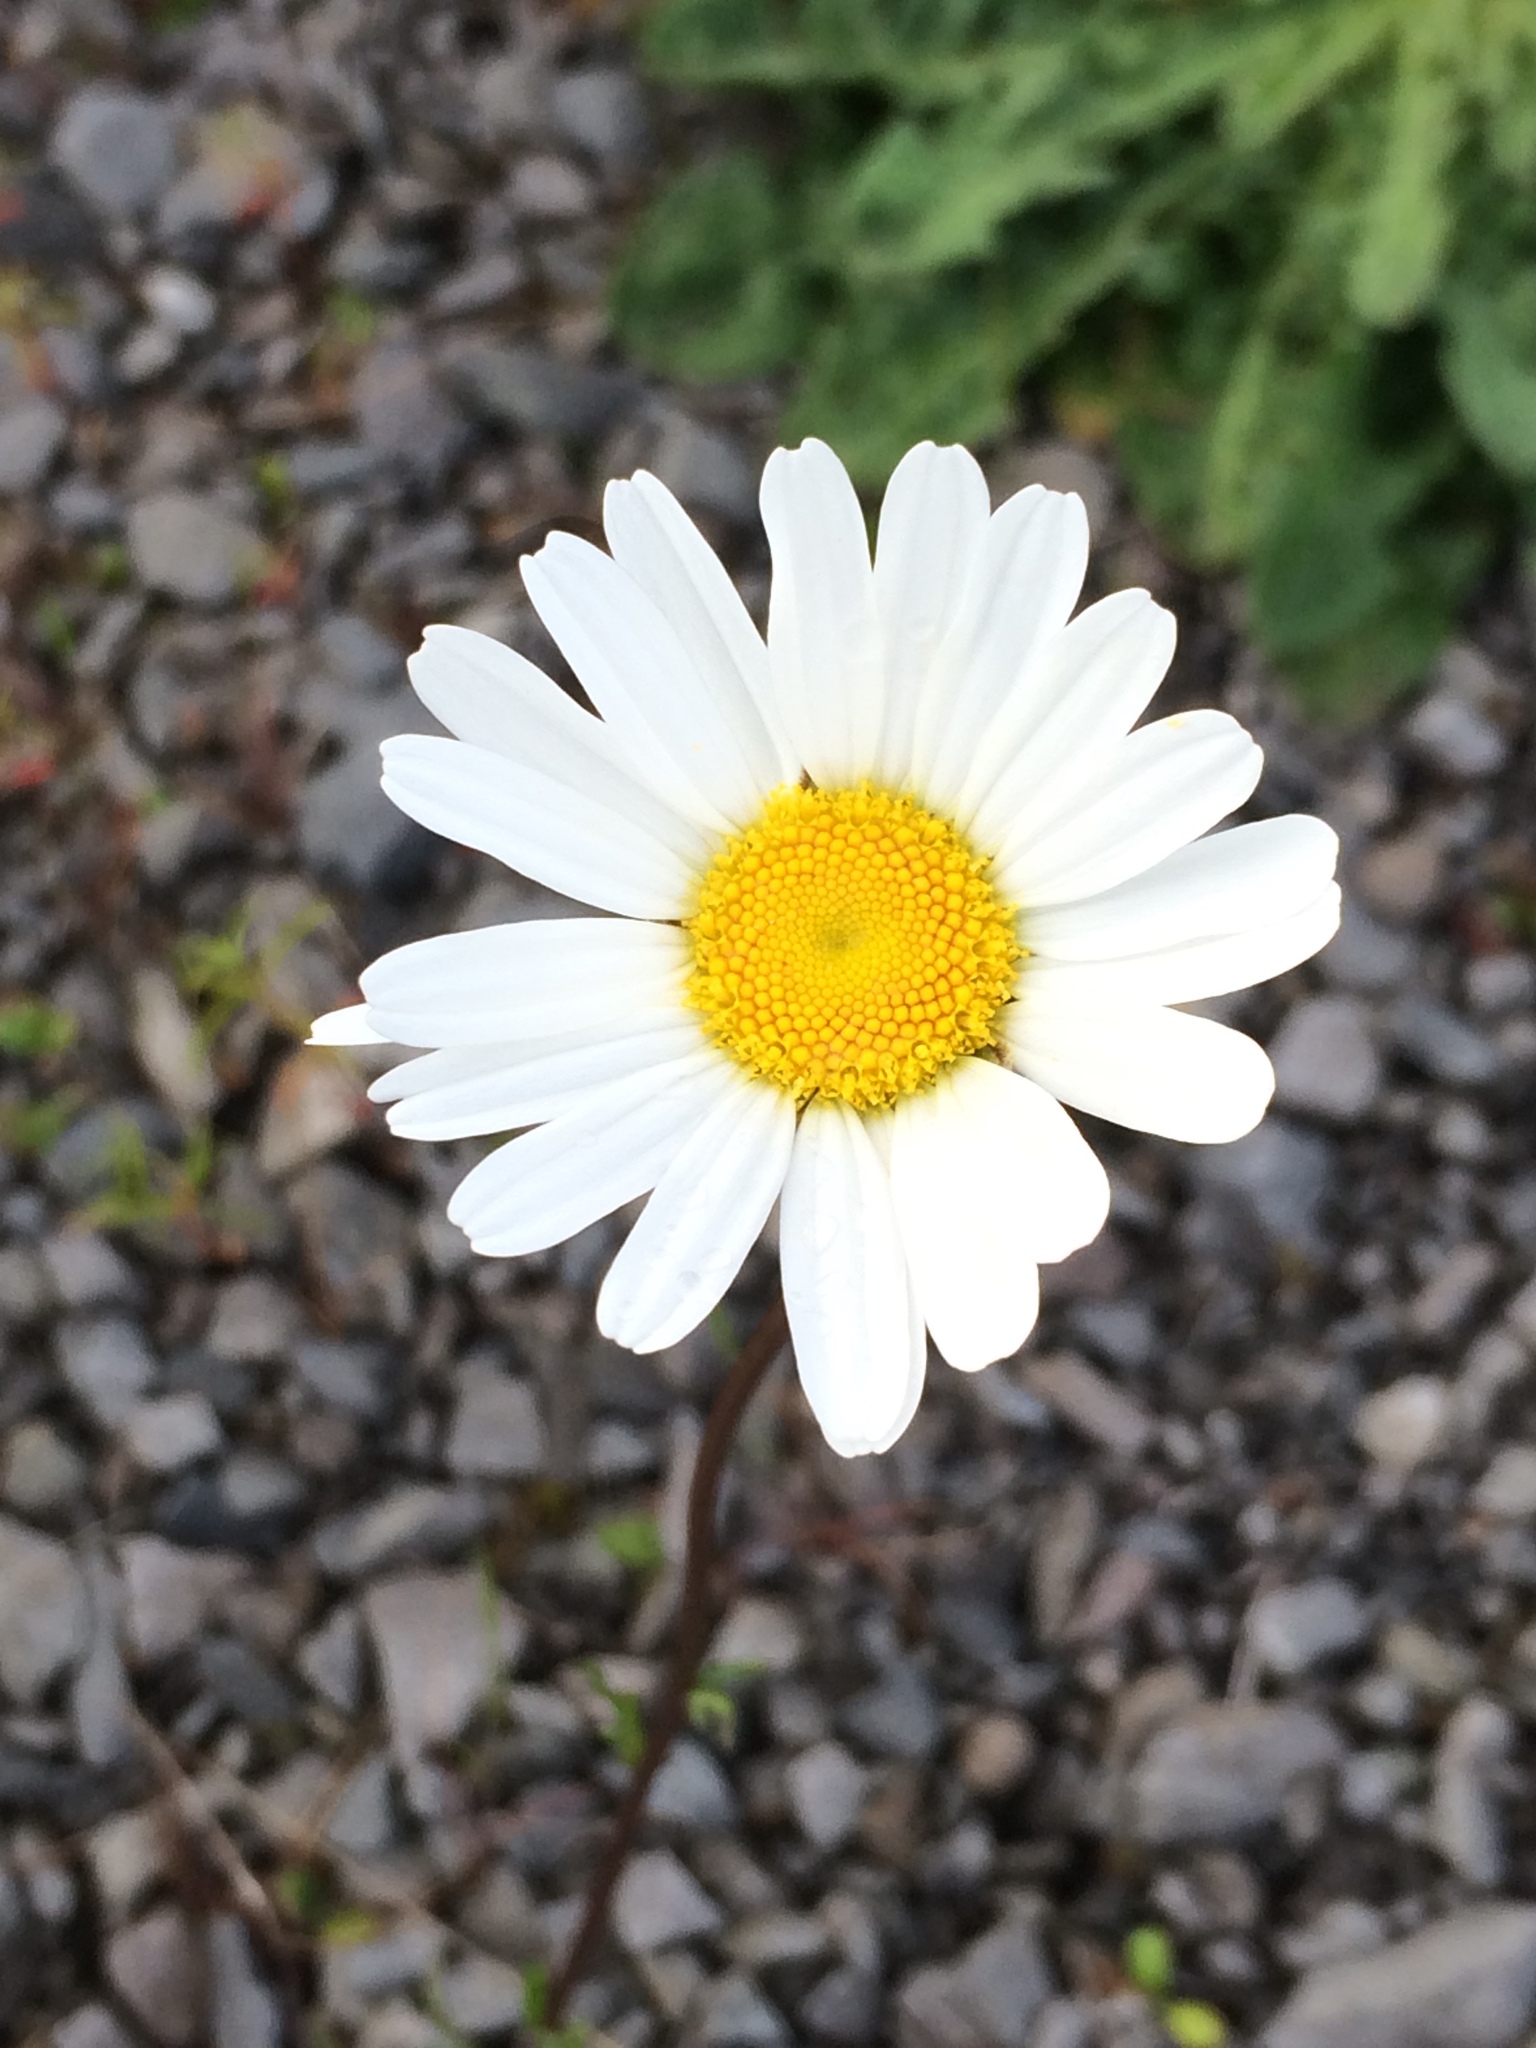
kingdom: Plantae
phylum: Tracheophyta
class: Magnoliopsida
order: Asterales
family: Asteraceae
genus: Leucanthemum
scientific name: Leucanthemum vulgare
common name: Oxeye daisy
